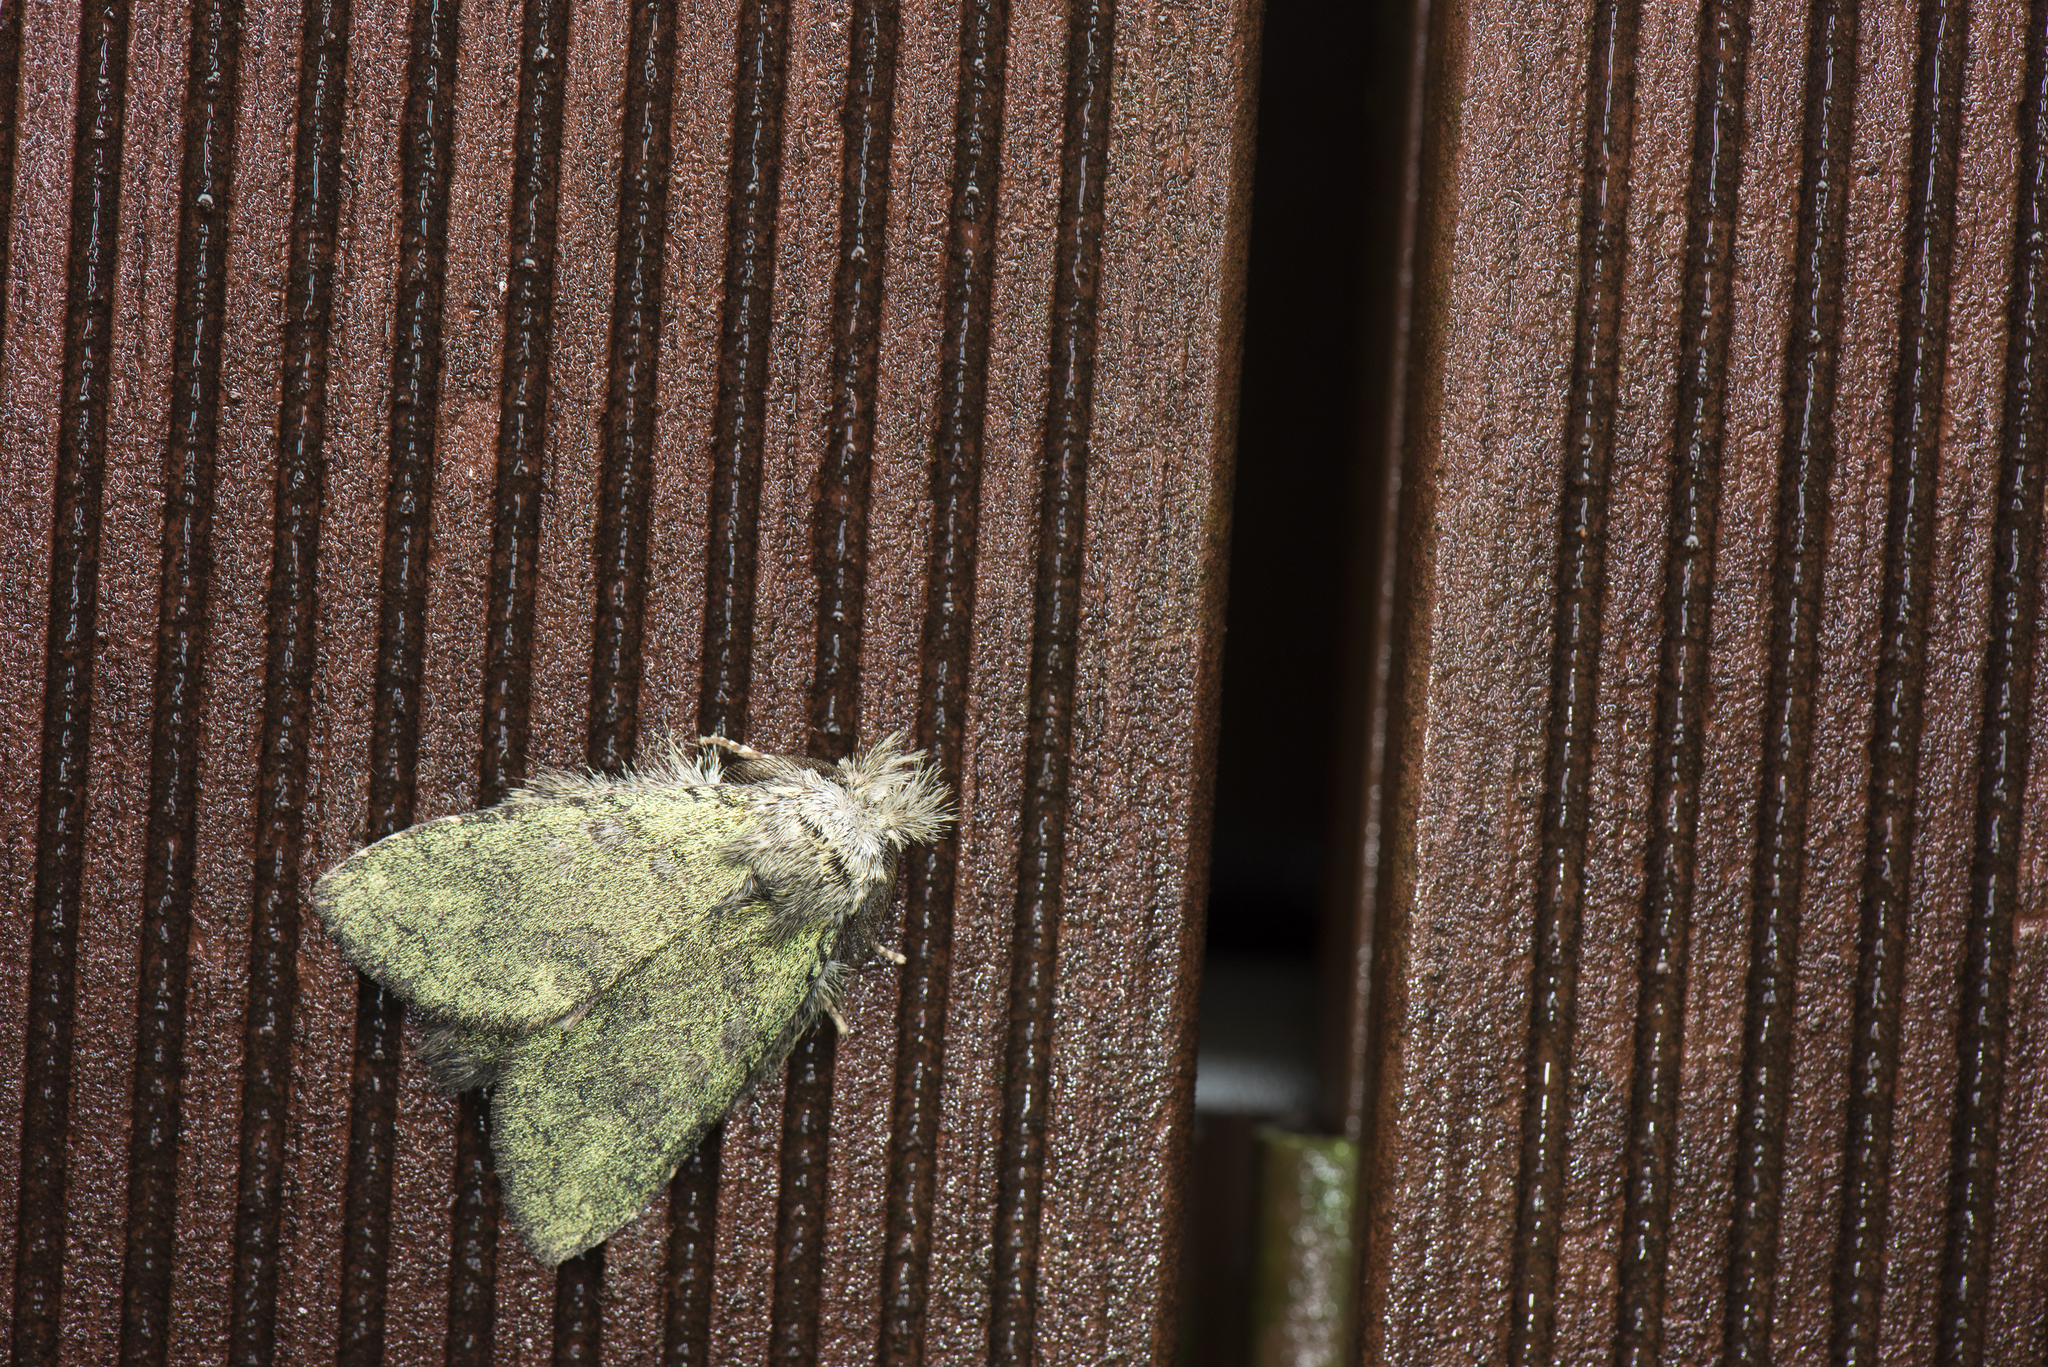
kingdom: Animalia
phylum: Arthropoda
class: Insecta
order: Lepidoptera
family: Notodontidae
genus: Syntypistis
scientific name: Syntypistis viridipicta
